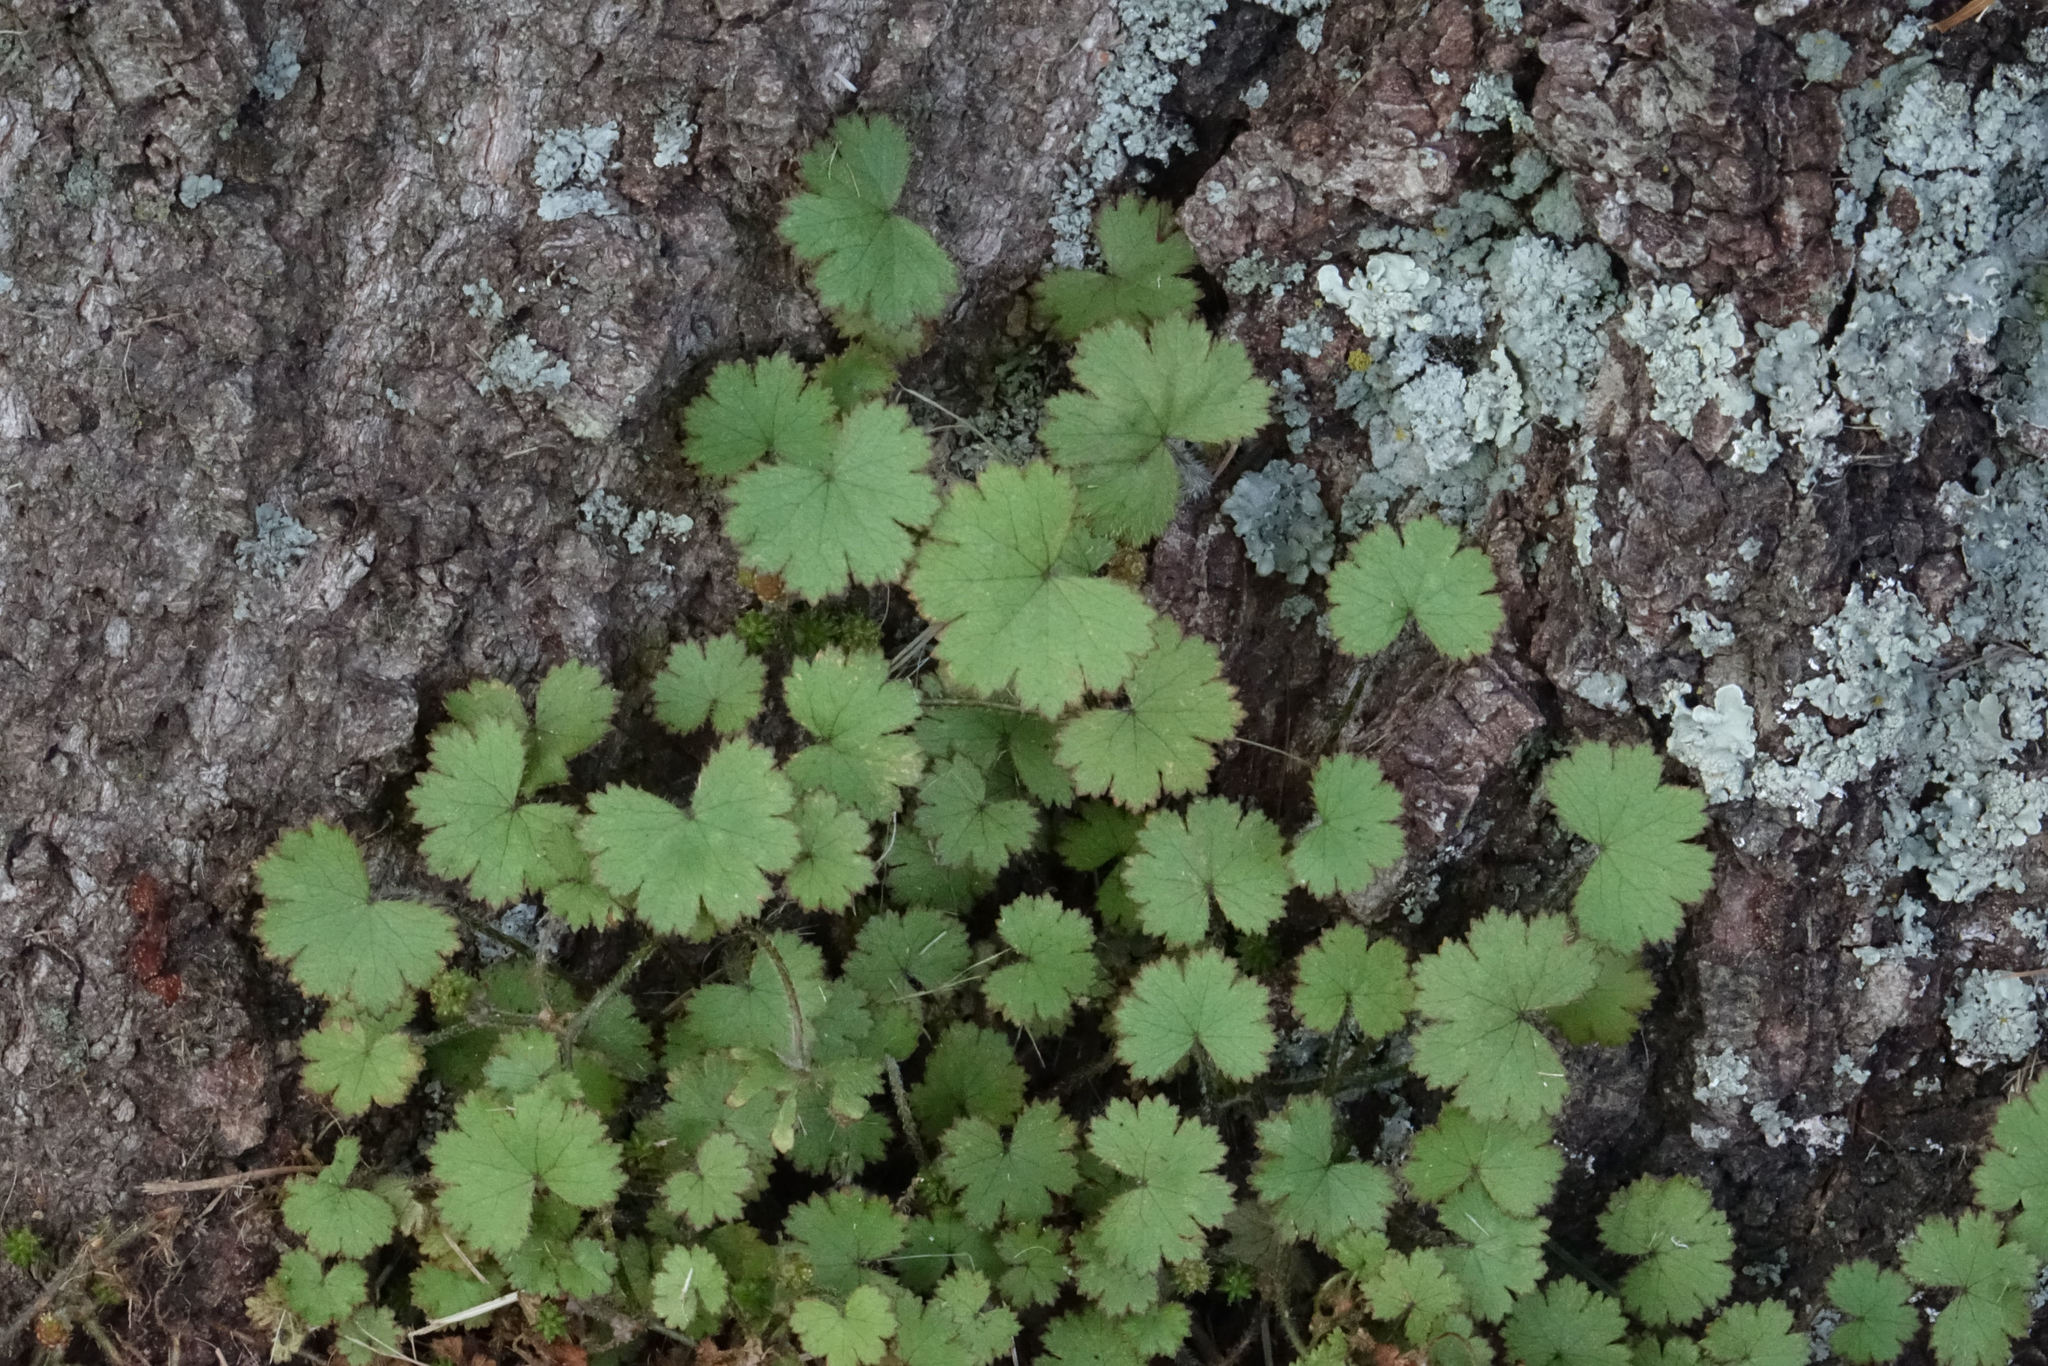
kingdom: Plantae
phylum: Tracheophyta
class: Magnoliopsida
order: Apiales
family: Araliaceae
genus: Hydrocotyle
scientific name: Hydrocotyle moschata
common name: Hairy pennywort
